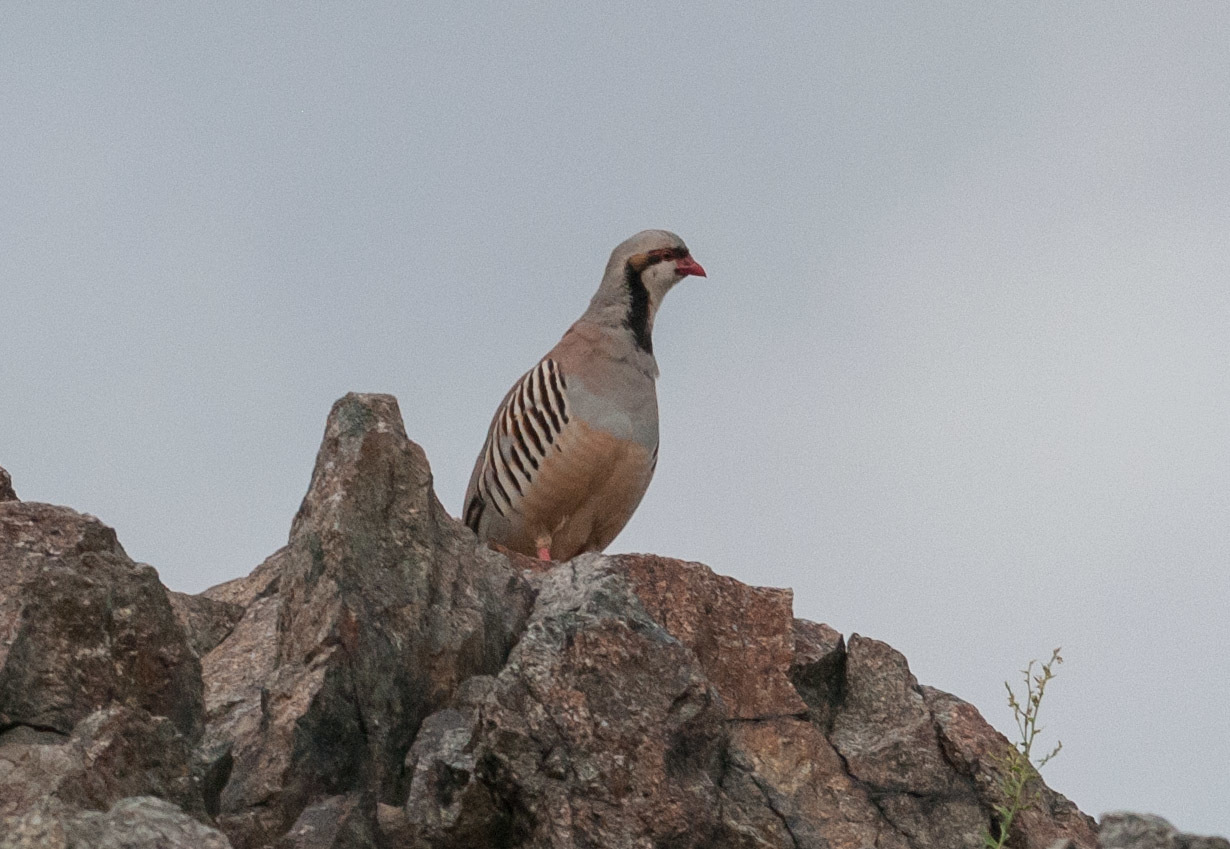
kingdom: Animalia
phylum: Chordata
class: Aves
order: Galliformes
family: Phasianidae
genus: Alectoris
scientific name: Alectoris chukar
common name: Chukar
